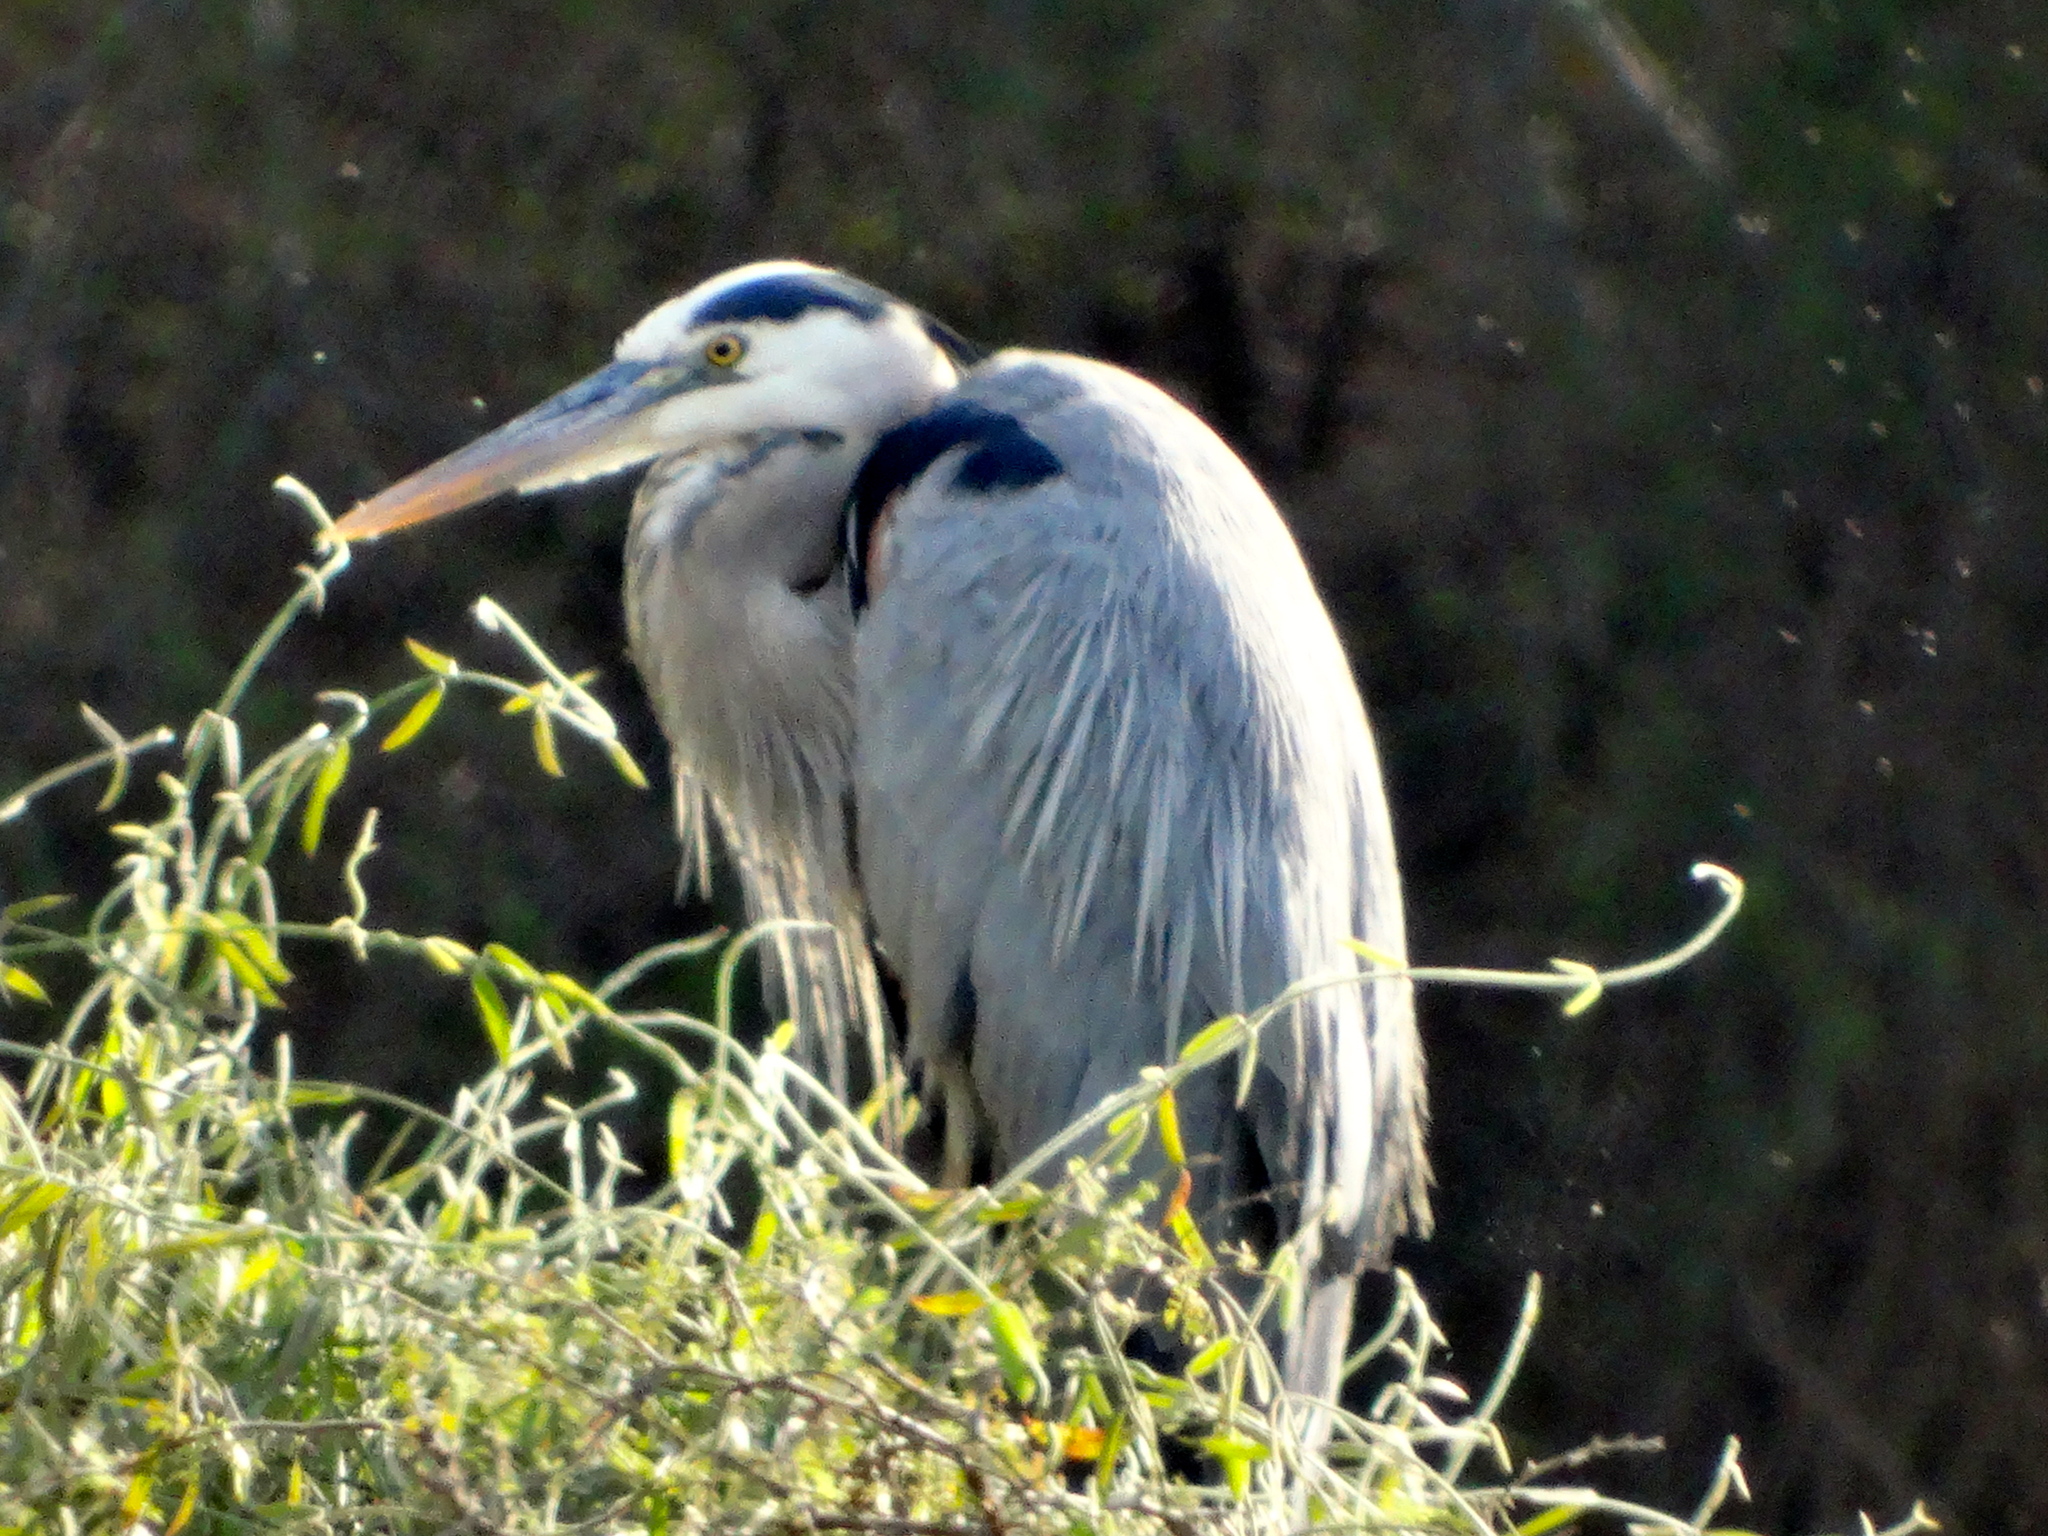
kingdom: Animalia
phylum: Chordata
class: Aves
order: Pelecaniformes
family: Ardeidae
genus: Ardea
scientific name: Ardea herodias
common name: Great blue heron
